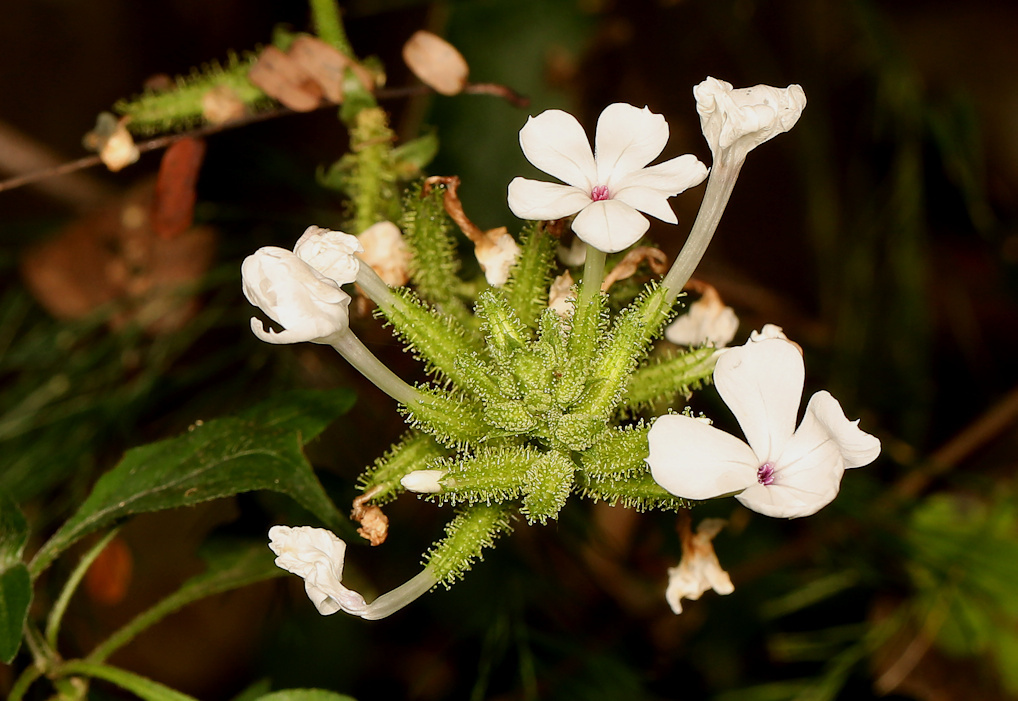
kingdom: Plantae
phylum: Tracheophyta
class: Magnoliopsida
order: Caryophyllales
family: Plumbaginaceae
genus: Plumbago
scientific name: Plumbago zeylanica
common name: Doctorbush
